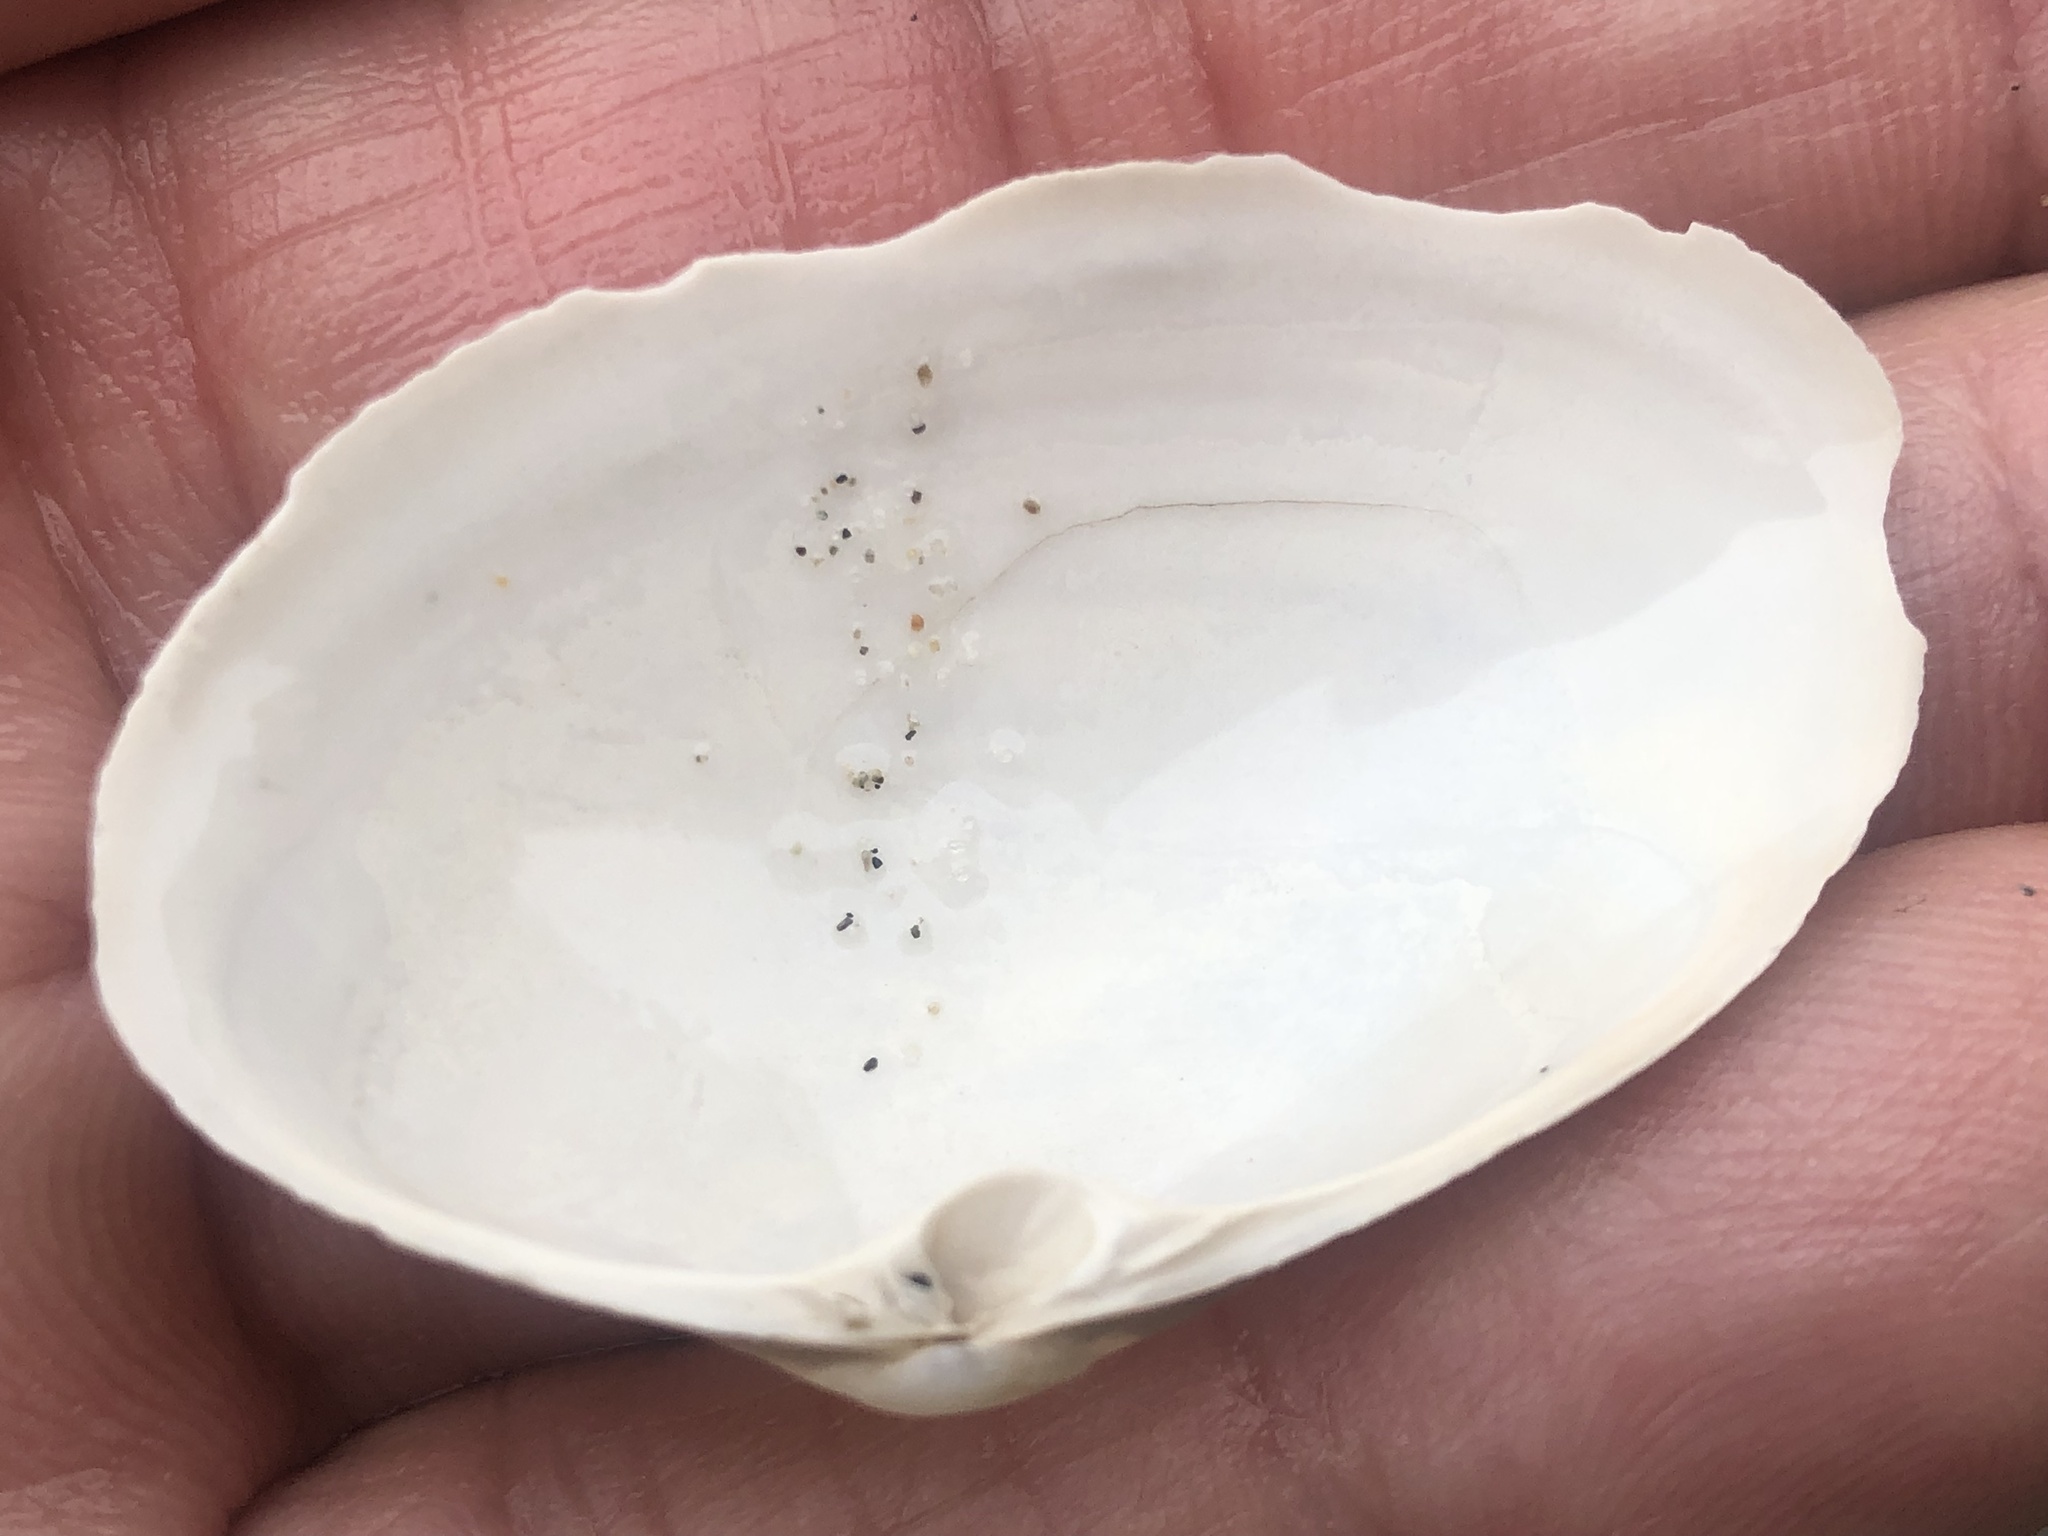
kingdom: Animalia
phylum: Mollusca
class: Bivalvia
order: Venerida
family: Mactridae
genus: Tresus
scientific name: Tresus nuttallii
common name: Pacific gaper clam
